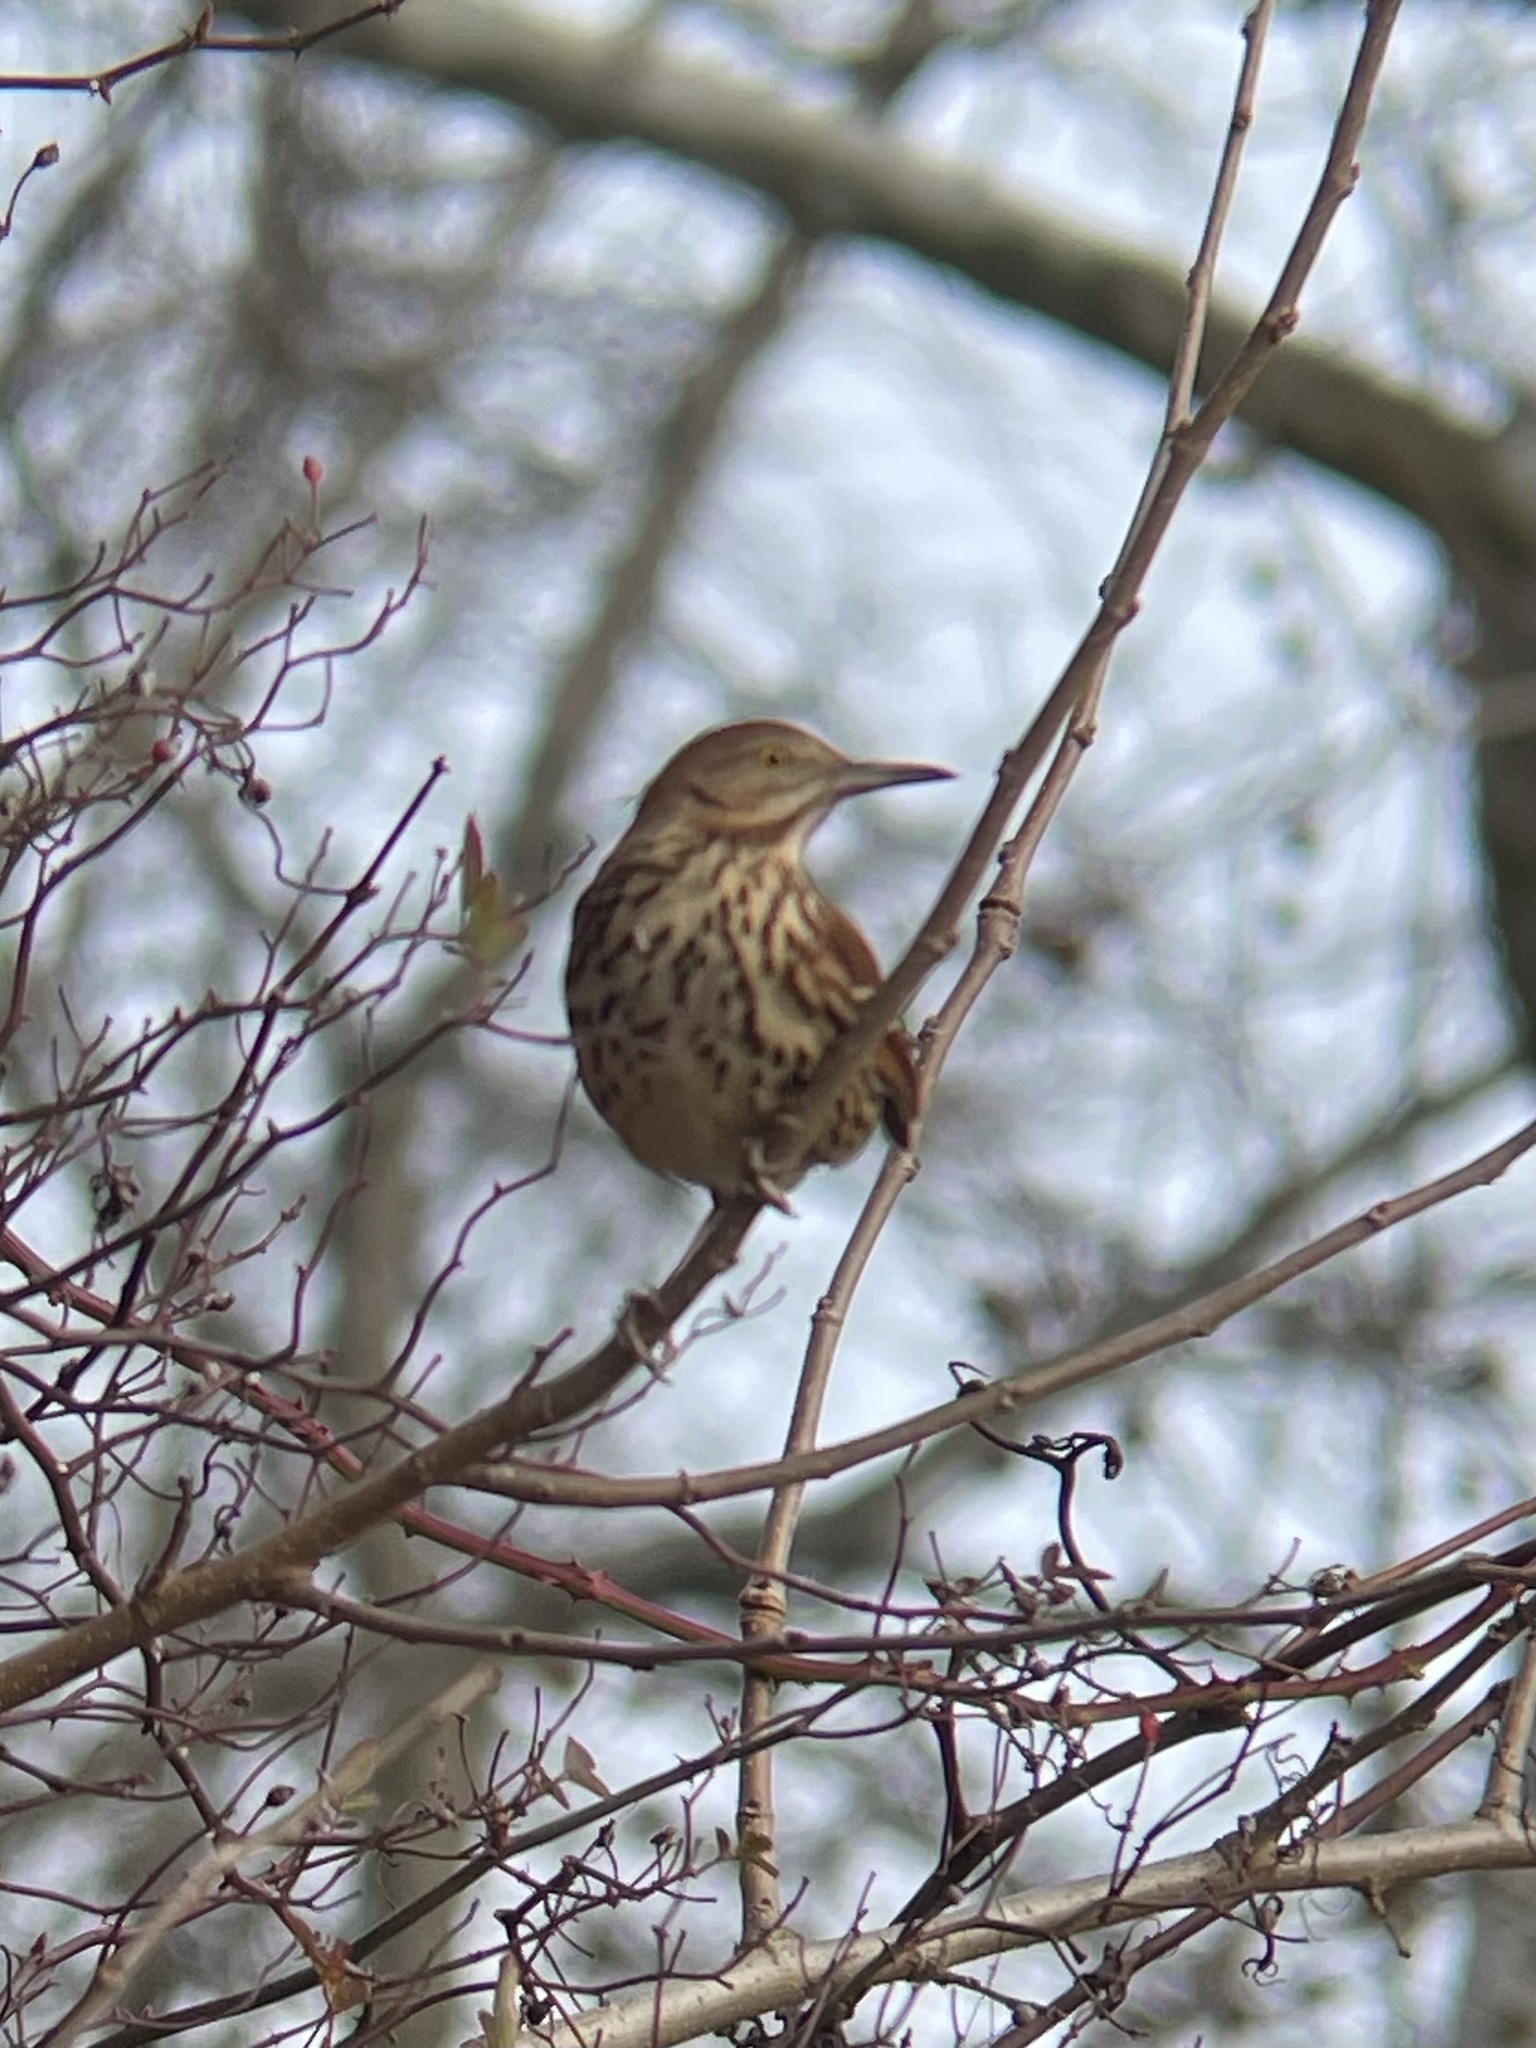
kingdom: Animalia
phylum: Chordata
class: Aves
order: Passeriformes
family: Mimidae
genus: Toxostoma
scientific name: Toxostoma rufum
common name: Brown thrasher
